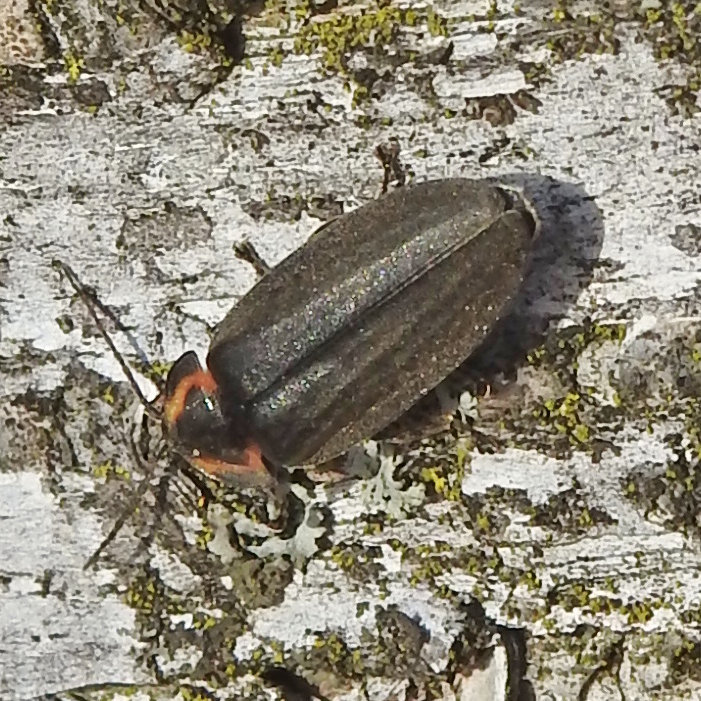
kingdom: Animalia
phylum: Arthropoda
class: Insecta
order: Coleoptera
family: Lampyridae
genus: Photinus
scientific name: Photinus corrusca
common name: Winter firefly
